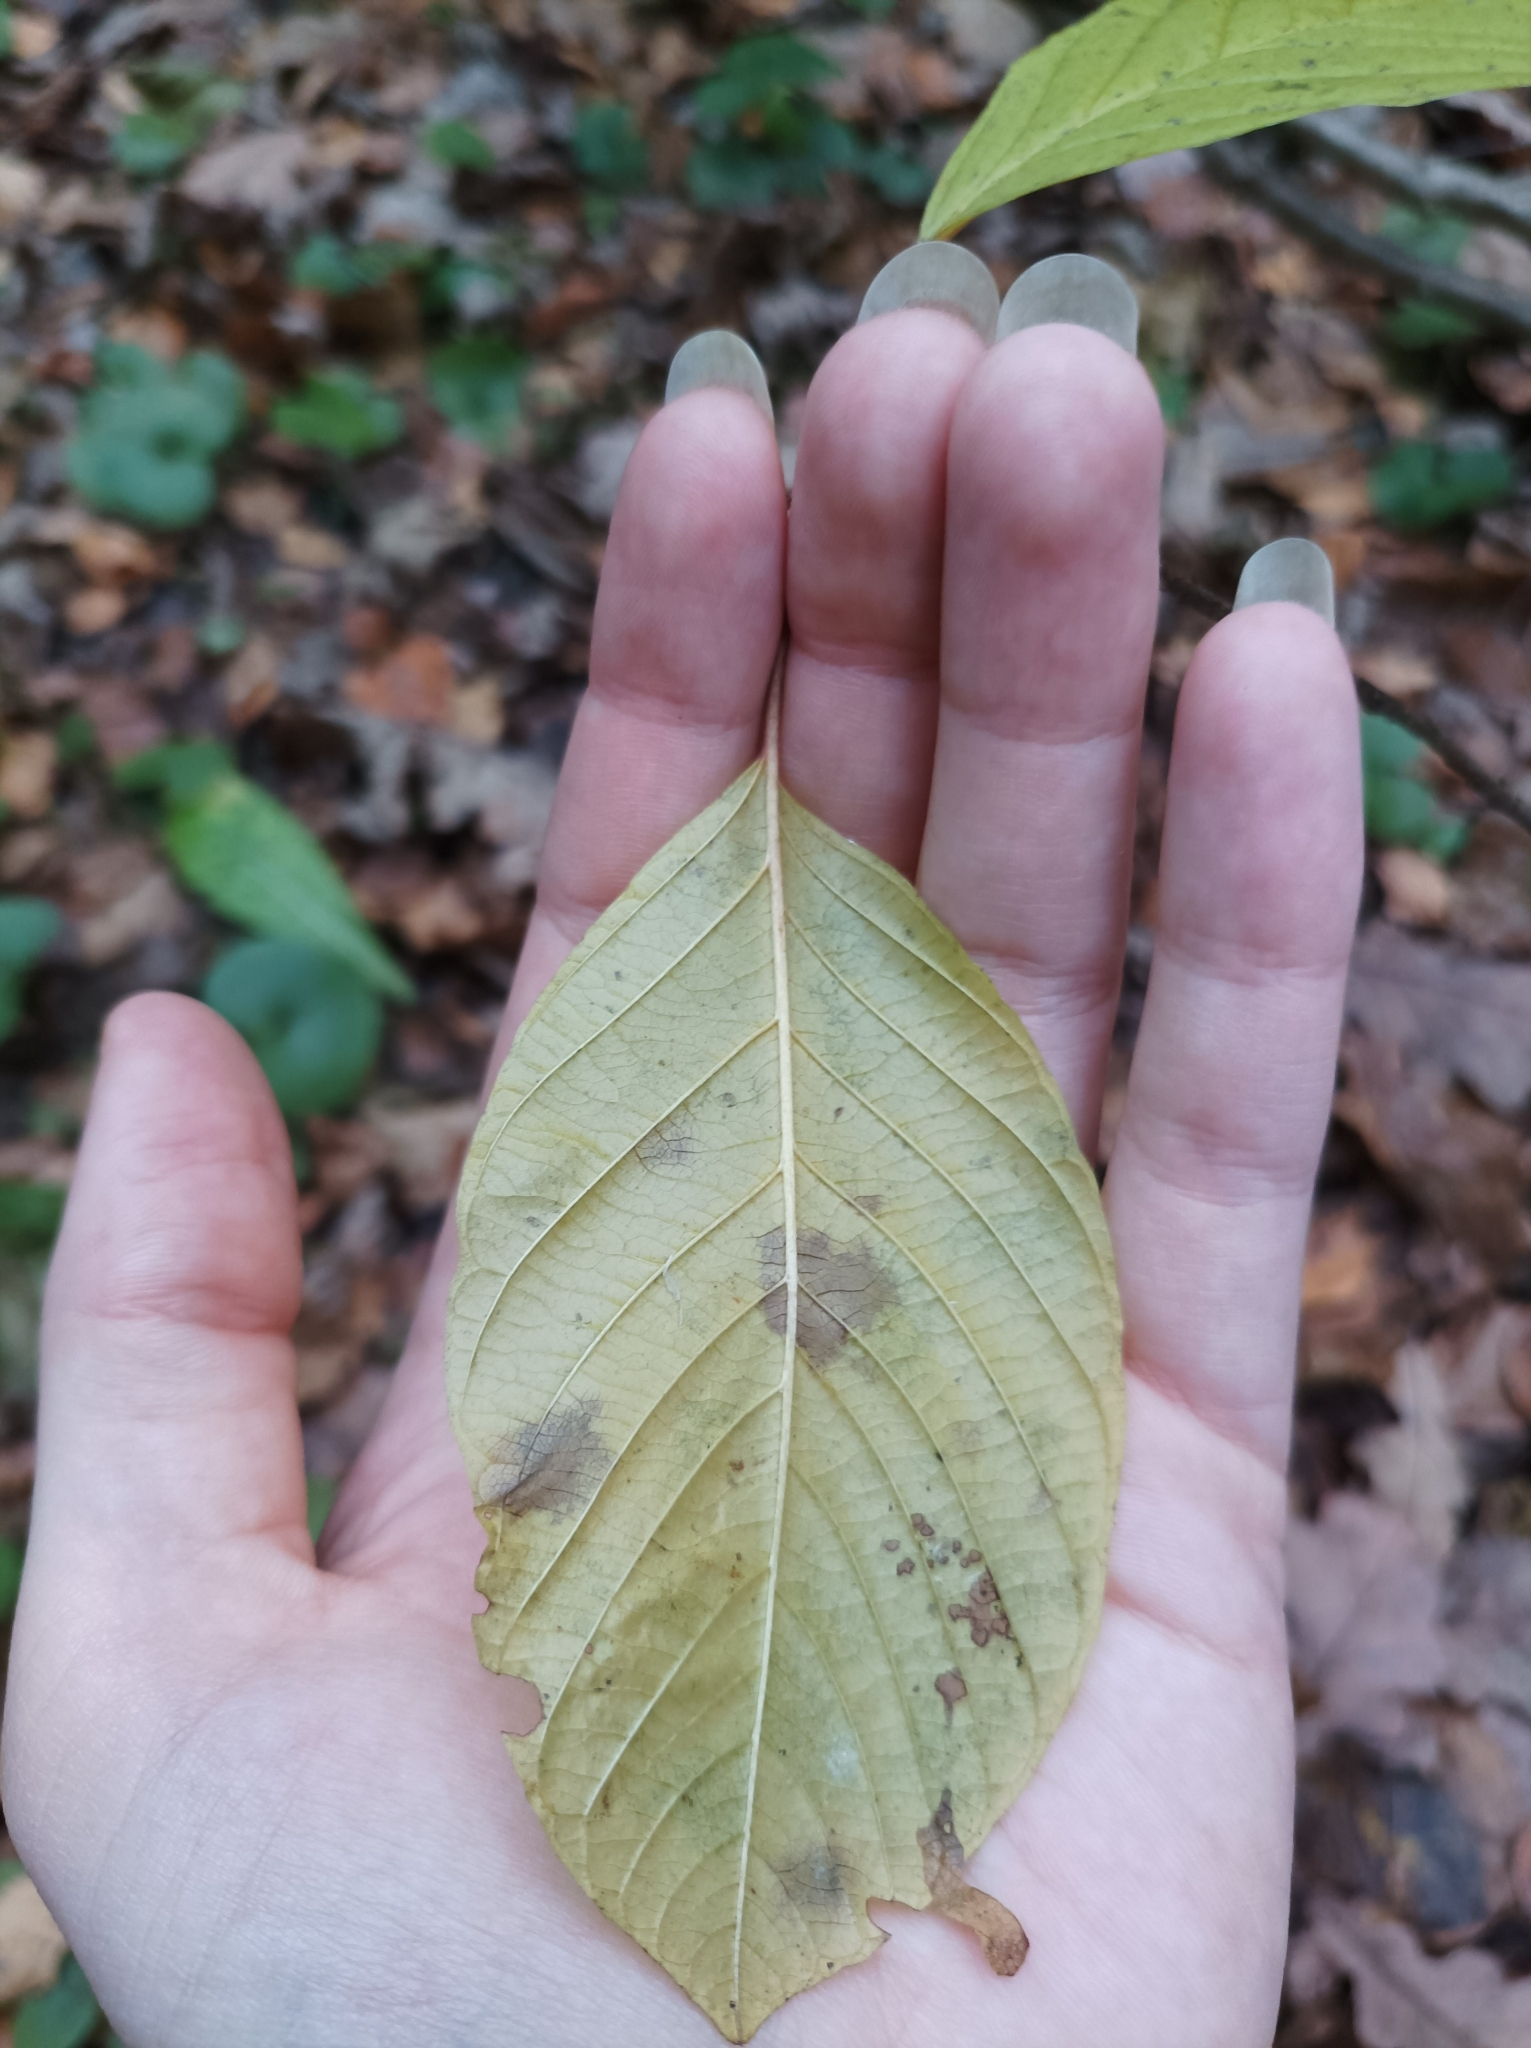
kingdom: Plantae
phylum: Tracheophyta
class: Magnoliopsida
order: Rosales
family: Rhamnaceae
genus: Frangula
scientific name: Frangula alnus
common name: Alder buckthorn
